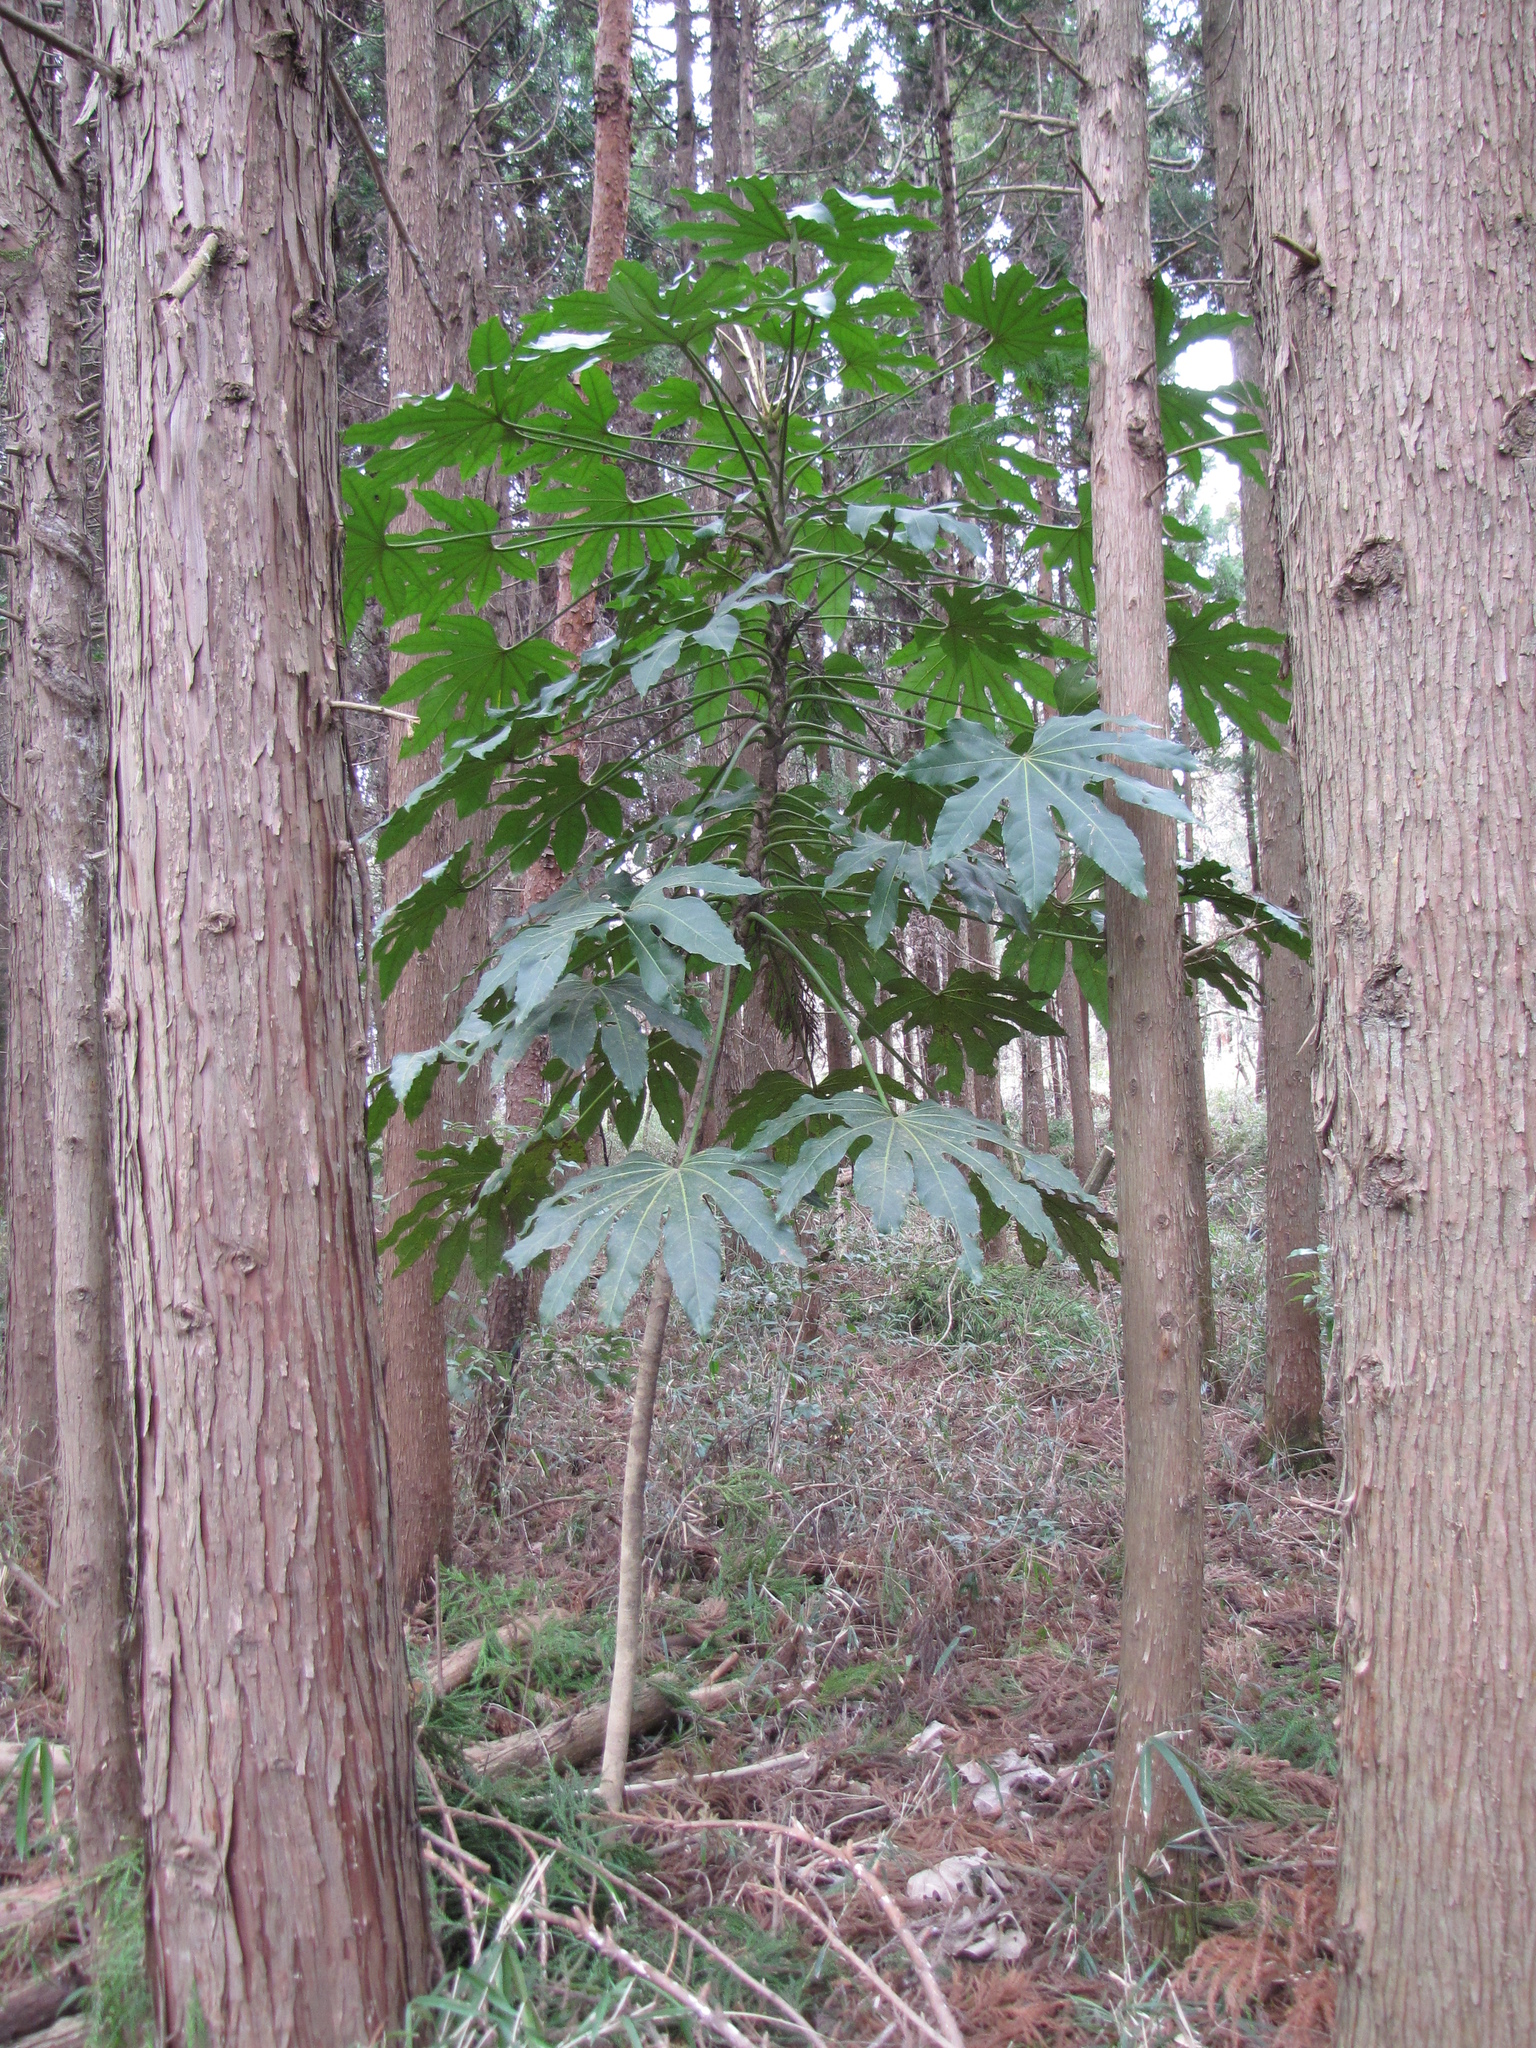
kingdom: Plantae
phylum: Tracheophyta
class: Magnoliopsida
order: Apiales
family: Araliaceae
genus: Fatsia
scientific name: Fatsia japonica
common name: Fatsia
